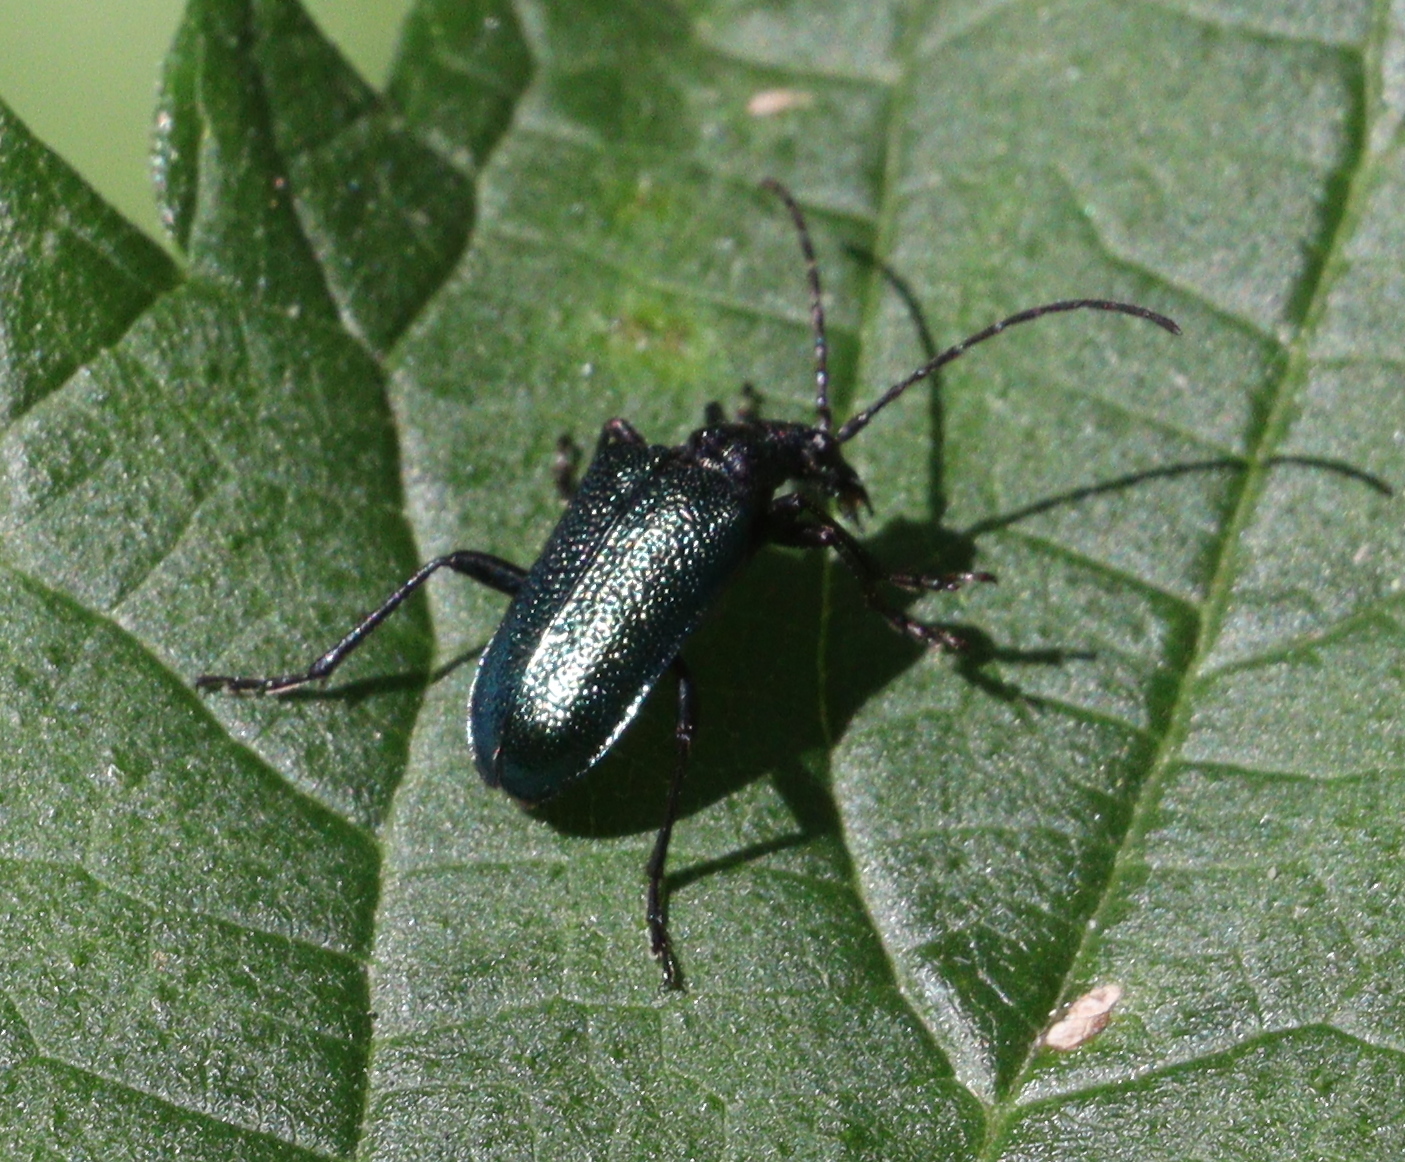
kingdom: Animalia
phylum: Arthropoda
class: Insecta
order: Coleoptera
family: Cerambycidae
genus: Gaurotes
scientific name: Gaurotes virginea
